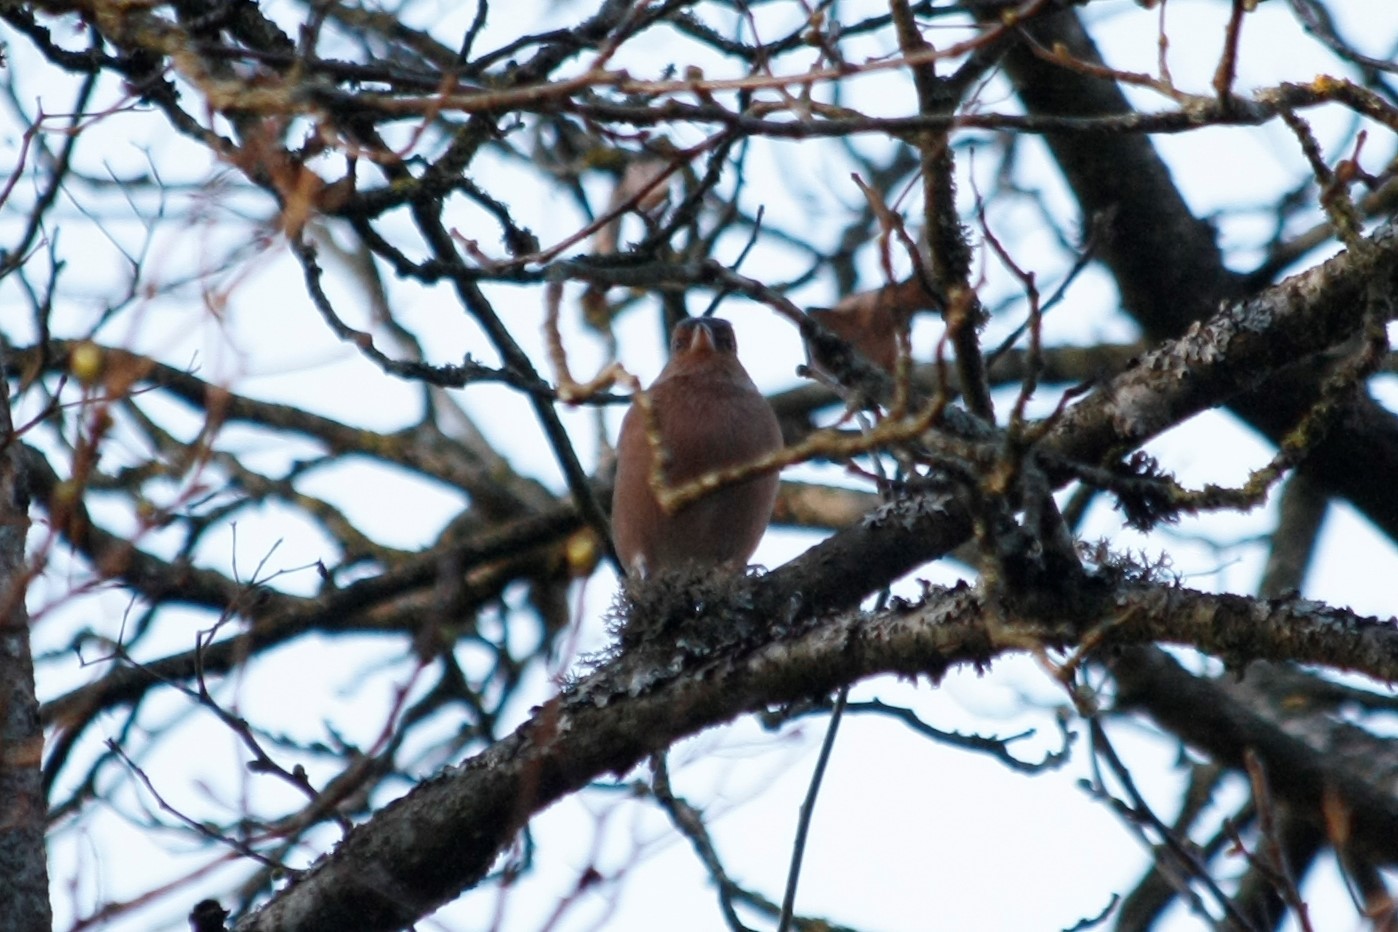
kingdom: Animalia
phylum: Chordata
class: Aves
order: Passeriformes
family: Fringillidae
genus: Fringilla
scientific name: Fringilla coelebs
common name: Common chaffinch
